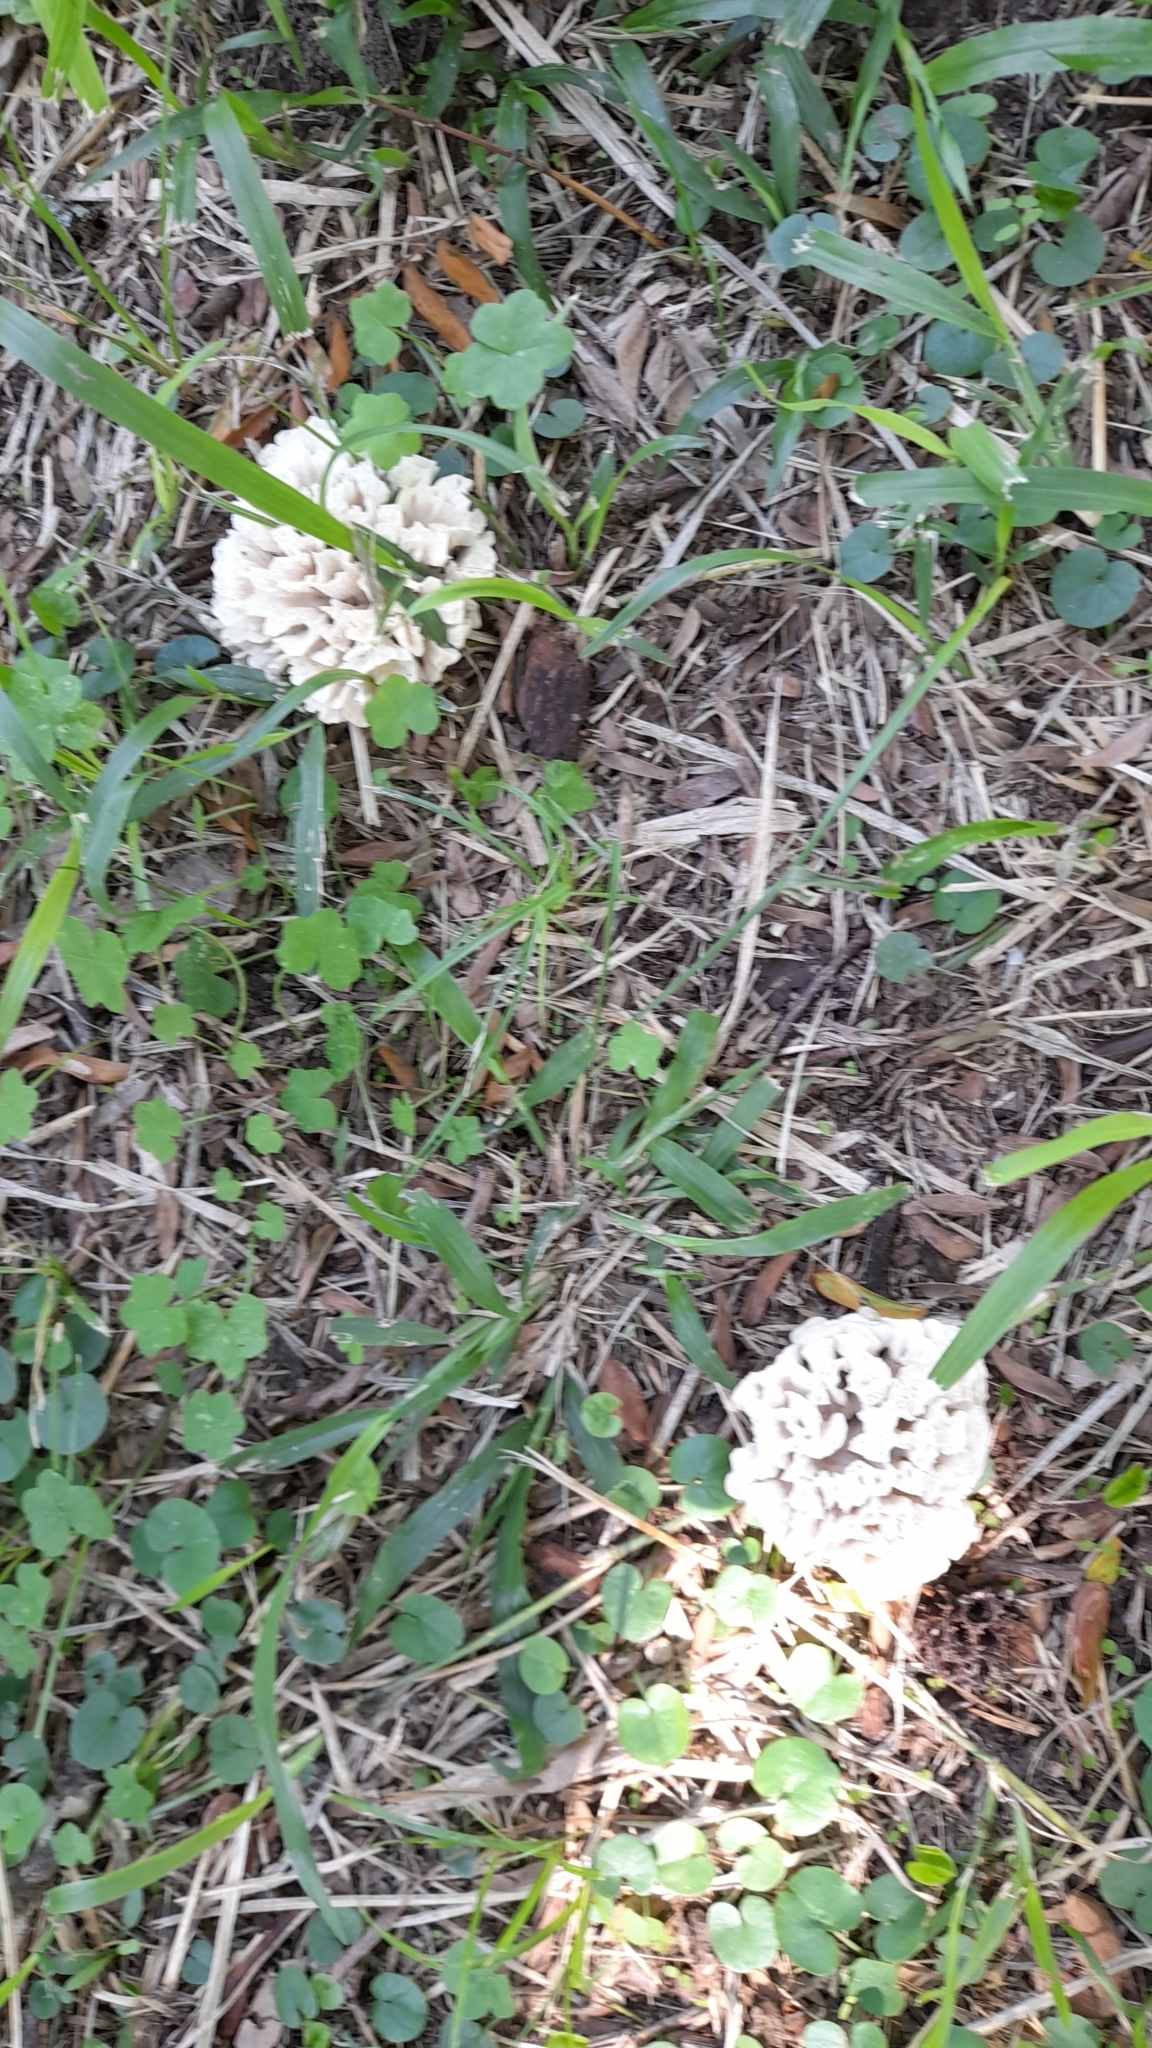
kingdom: Fungi
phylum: Basidiomycota
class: Agaricomycetes
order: Polyporales
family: Irpicaceae
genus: Irpex
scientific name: Irpex rosettiformis
